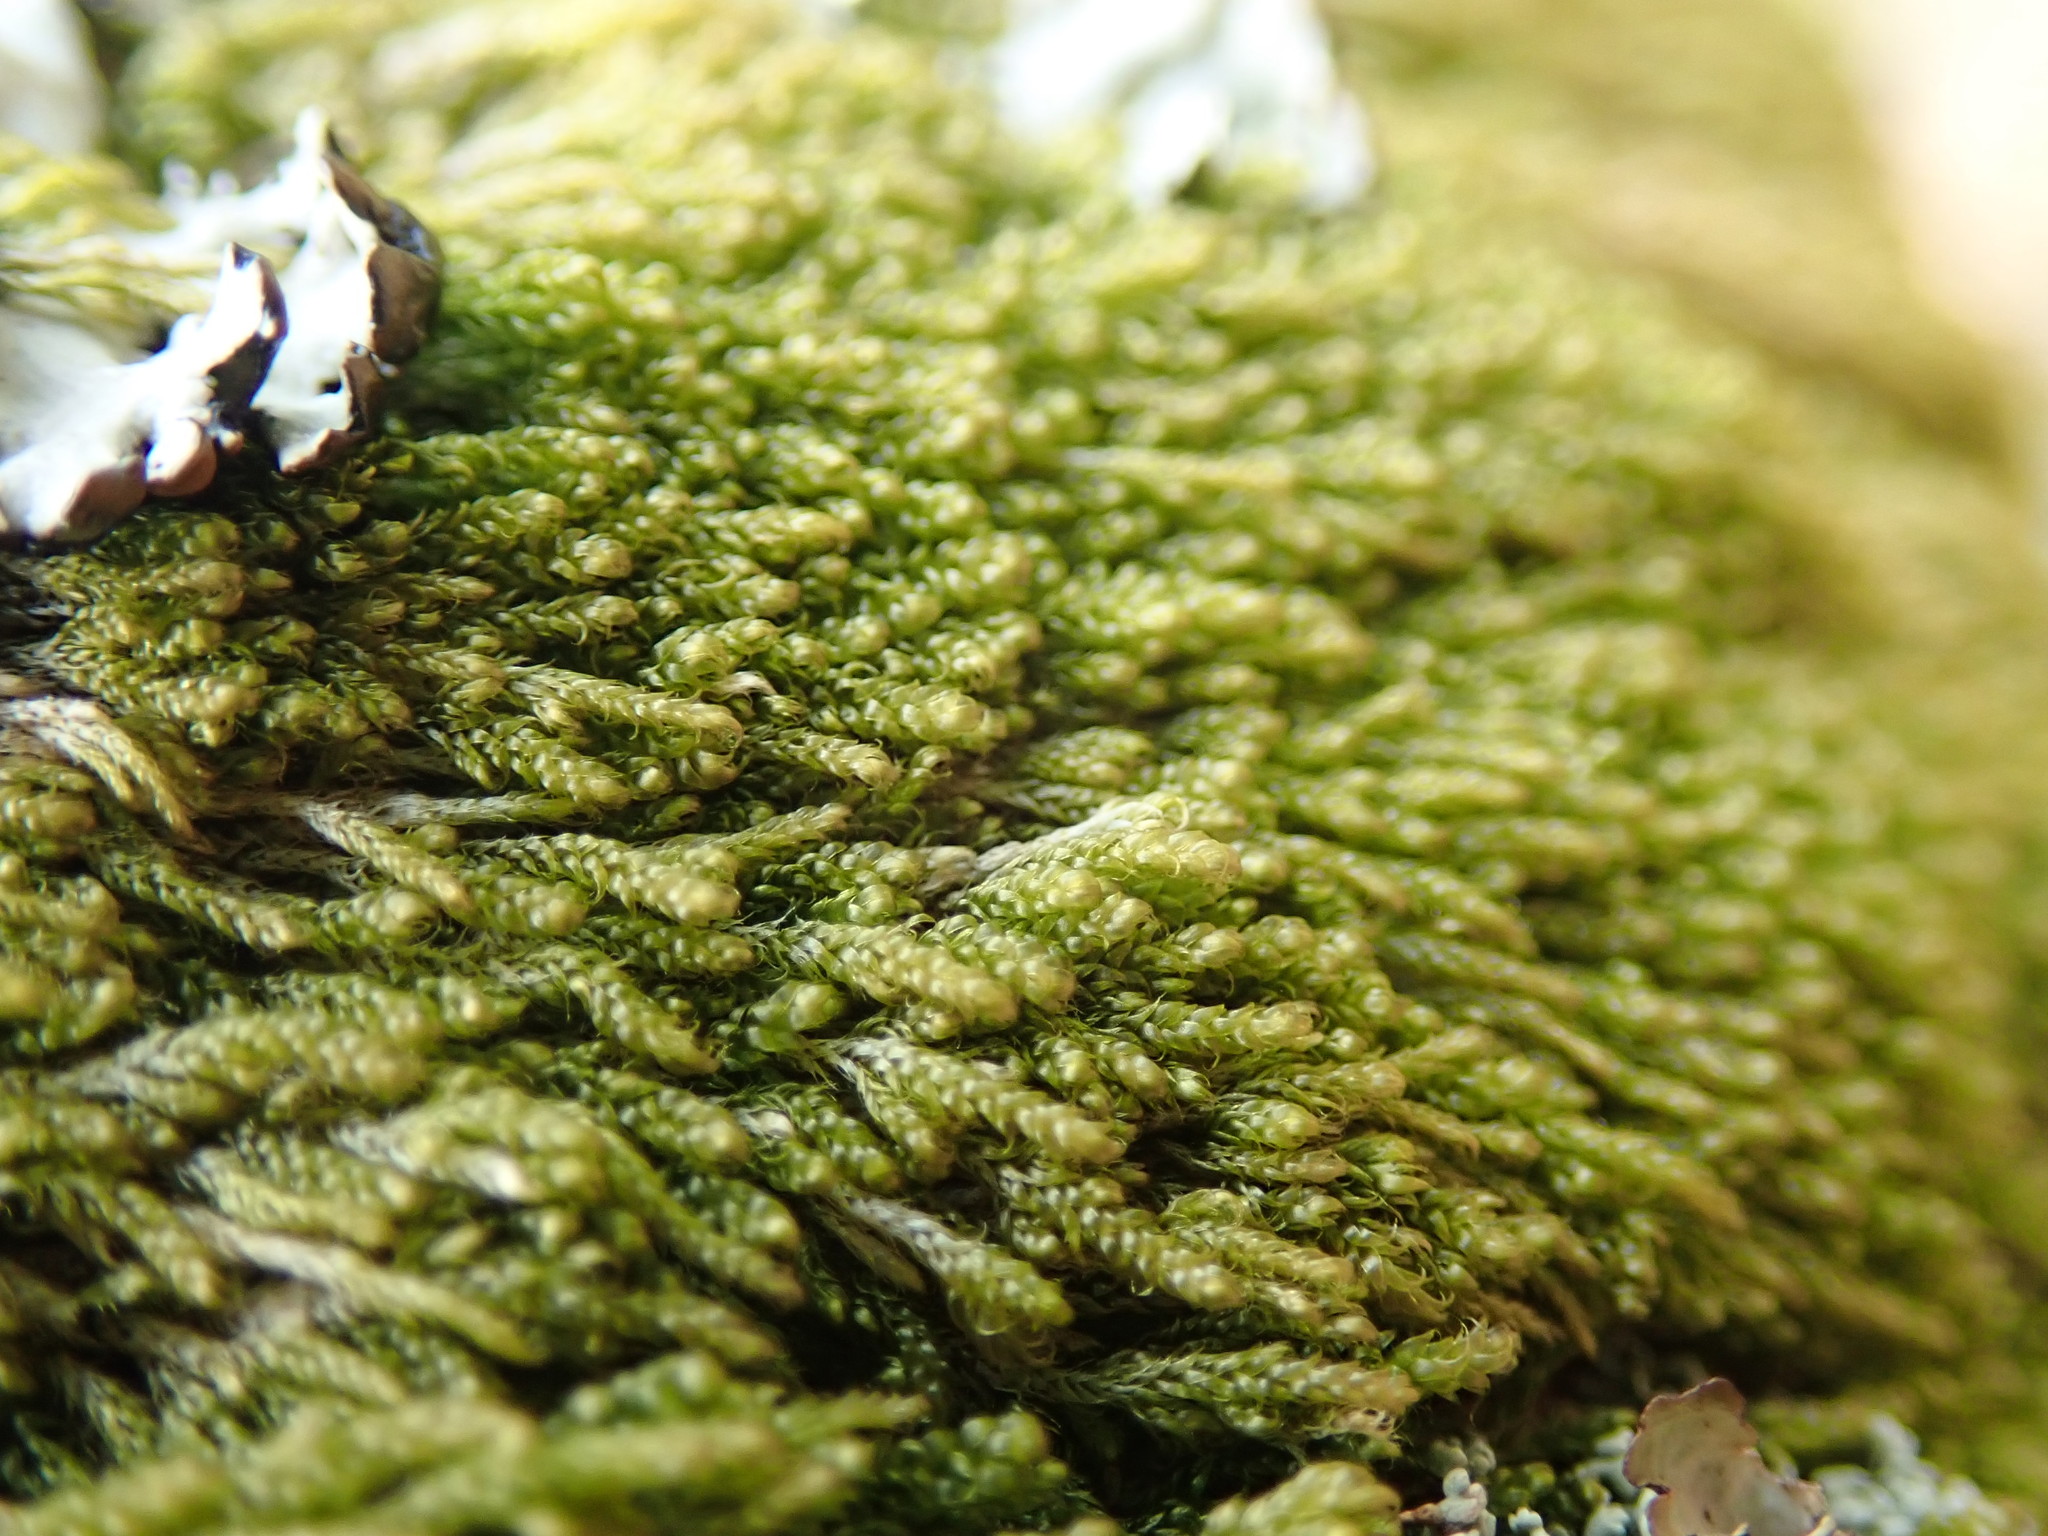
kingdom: Plantae
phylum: Bryophyta
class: Bryopsida
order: Hypnales
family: Pylaisiadelphaceae
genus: Trochophyllohypnum
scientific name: Trochophyllohypnum circinale
